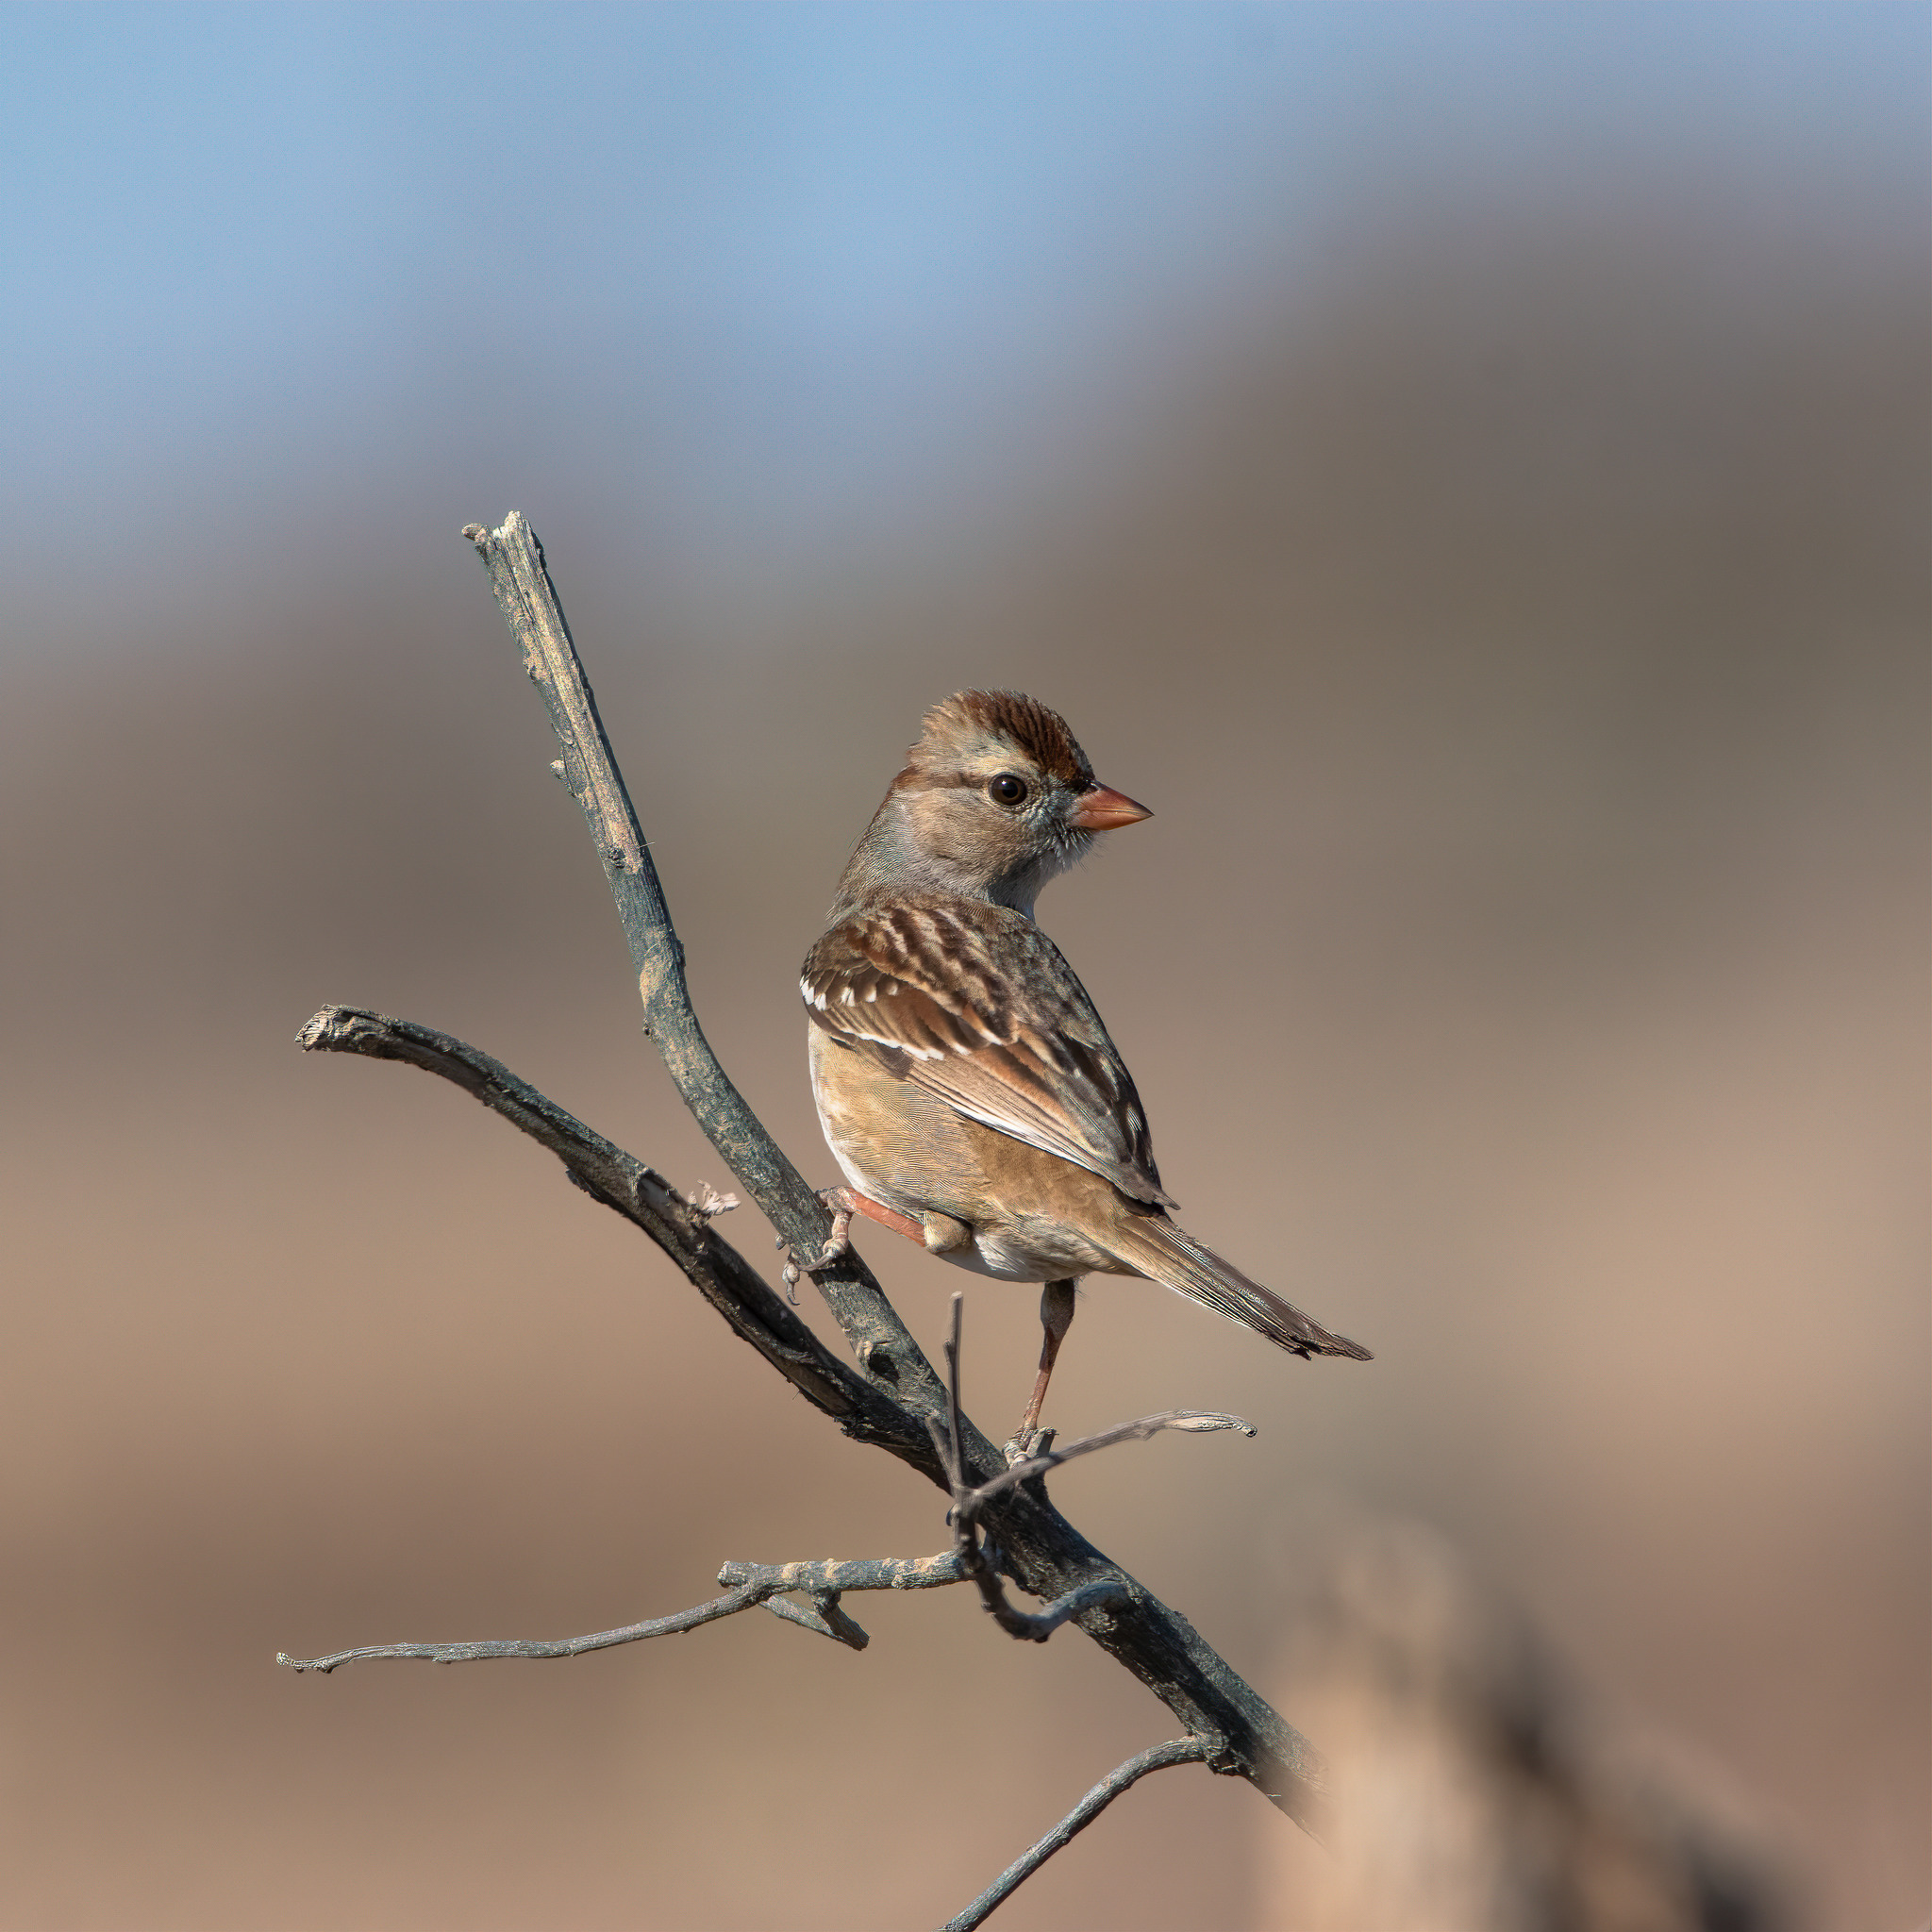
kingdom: Animalia
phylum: Chordata
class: Aves
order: Passeriformes
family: Passerellidae
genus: Zonotrichia
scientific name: Zonotrichia leucophrys
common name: White-crowned sparrow
